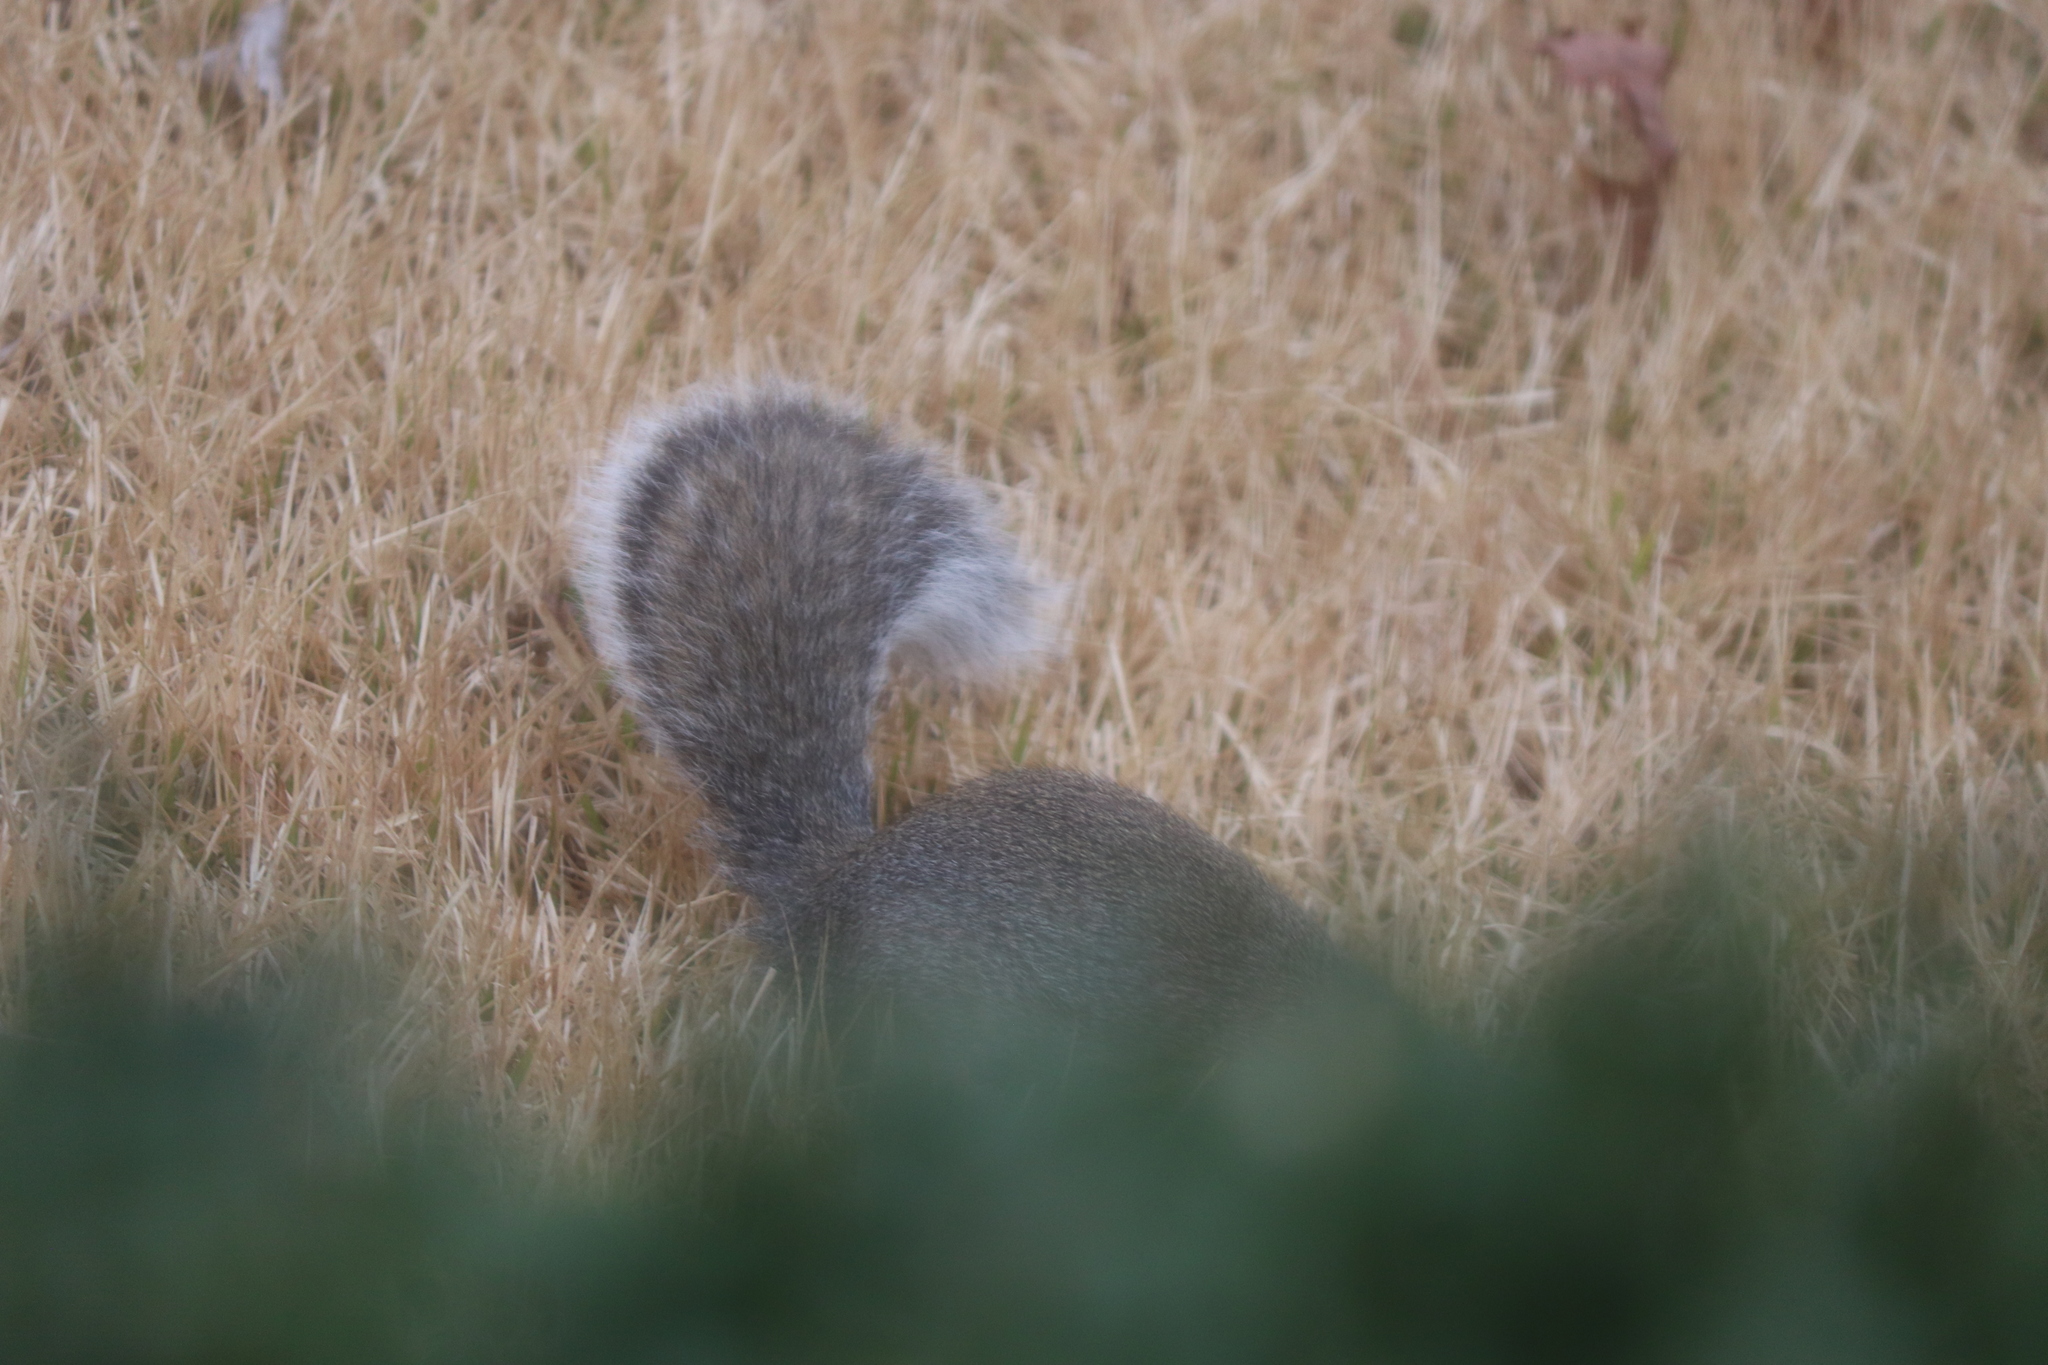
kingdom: Animalia
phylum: Chordata
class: Mammalia
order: Rodentia
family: Sciuridae
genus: Sciurus
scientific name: Sciurus carolinensis
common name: Eastern gray squirrel
